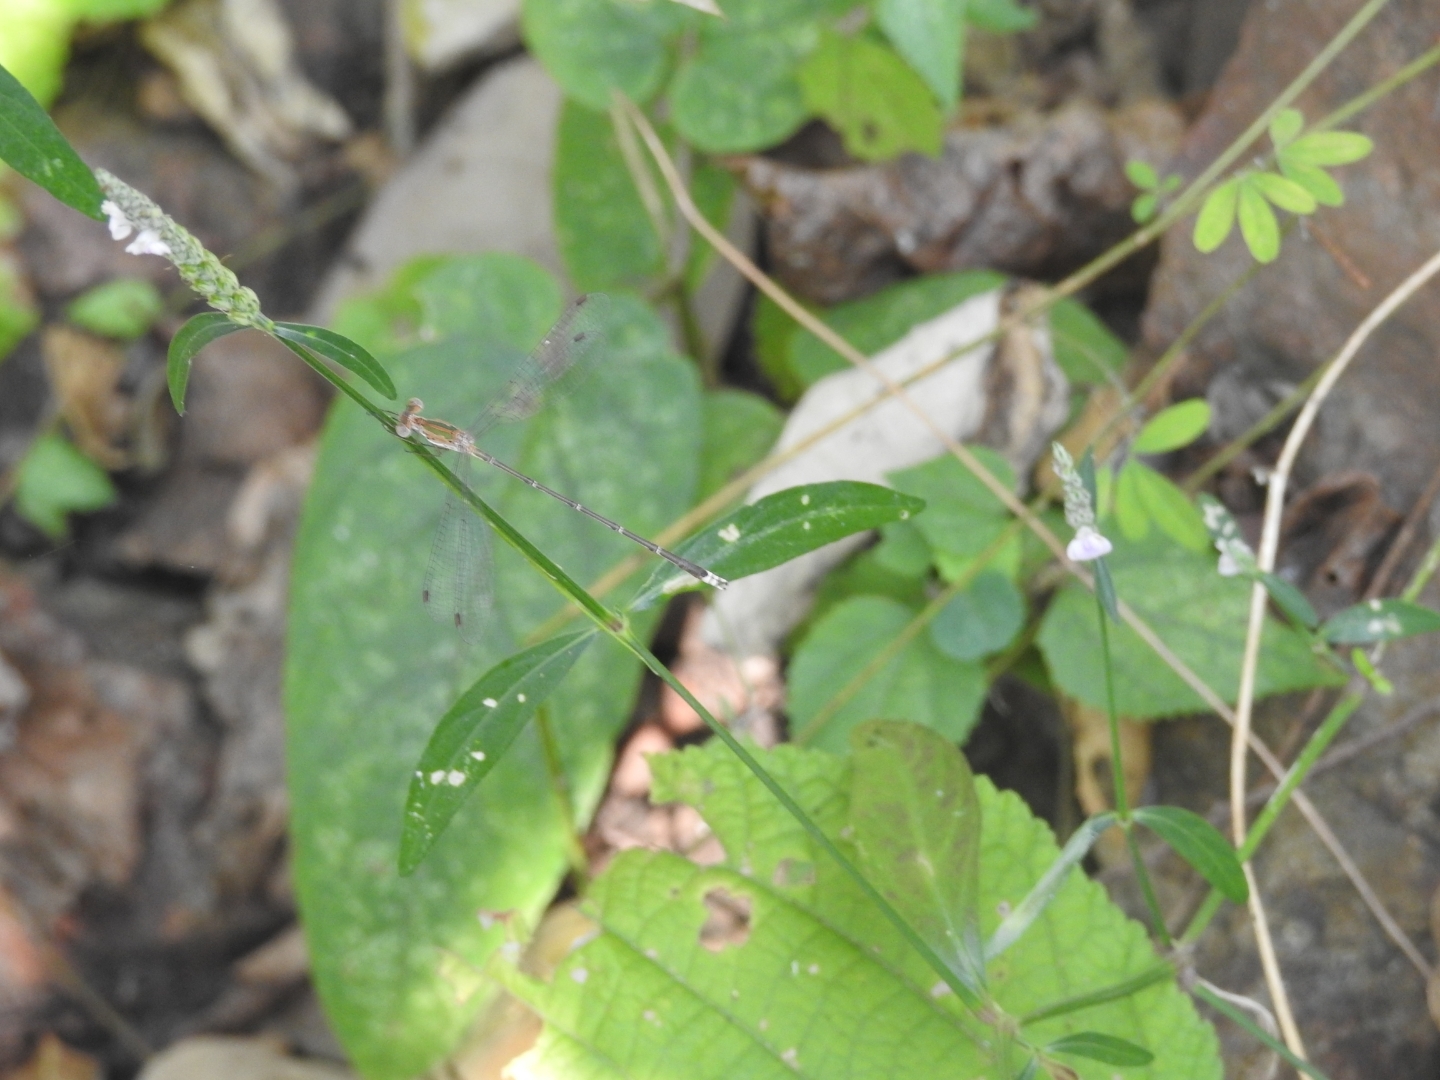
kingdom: Animalia
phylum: Arthropoda
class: Insecta
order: Odonata
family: Lestidae
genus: Lestes
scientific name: Lestes elatus
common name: Emerald spreadwing
